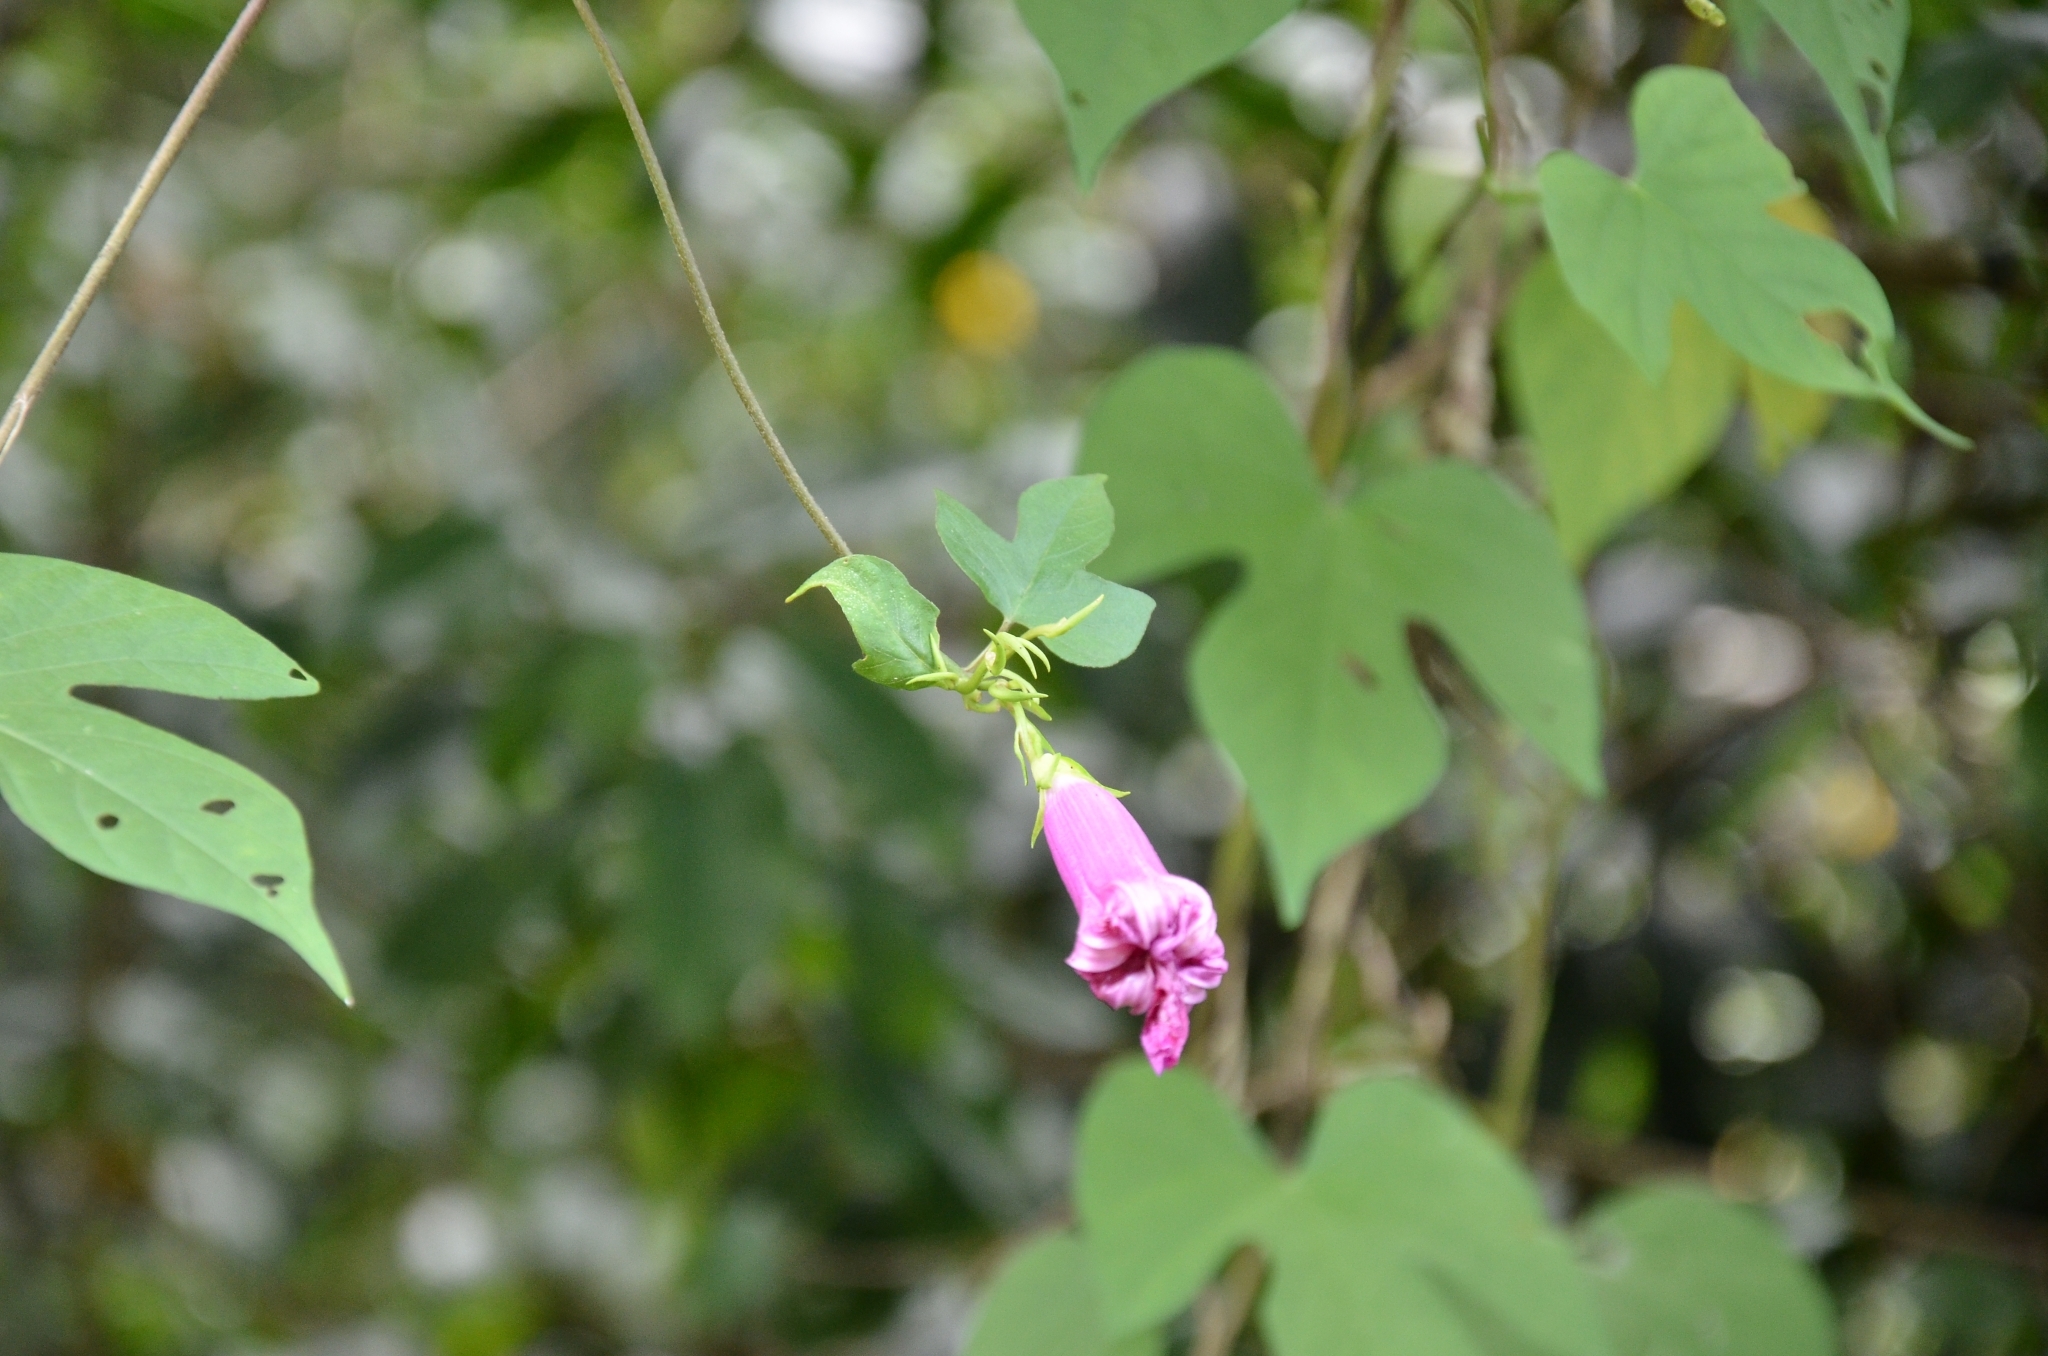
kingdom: Plantae
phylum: Tracheophyta
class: Magnoliopsida
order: Solanales
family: Convolvulaceae
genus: Ipomoea
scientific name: Ipomoea indica
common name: Blue dawnflower
